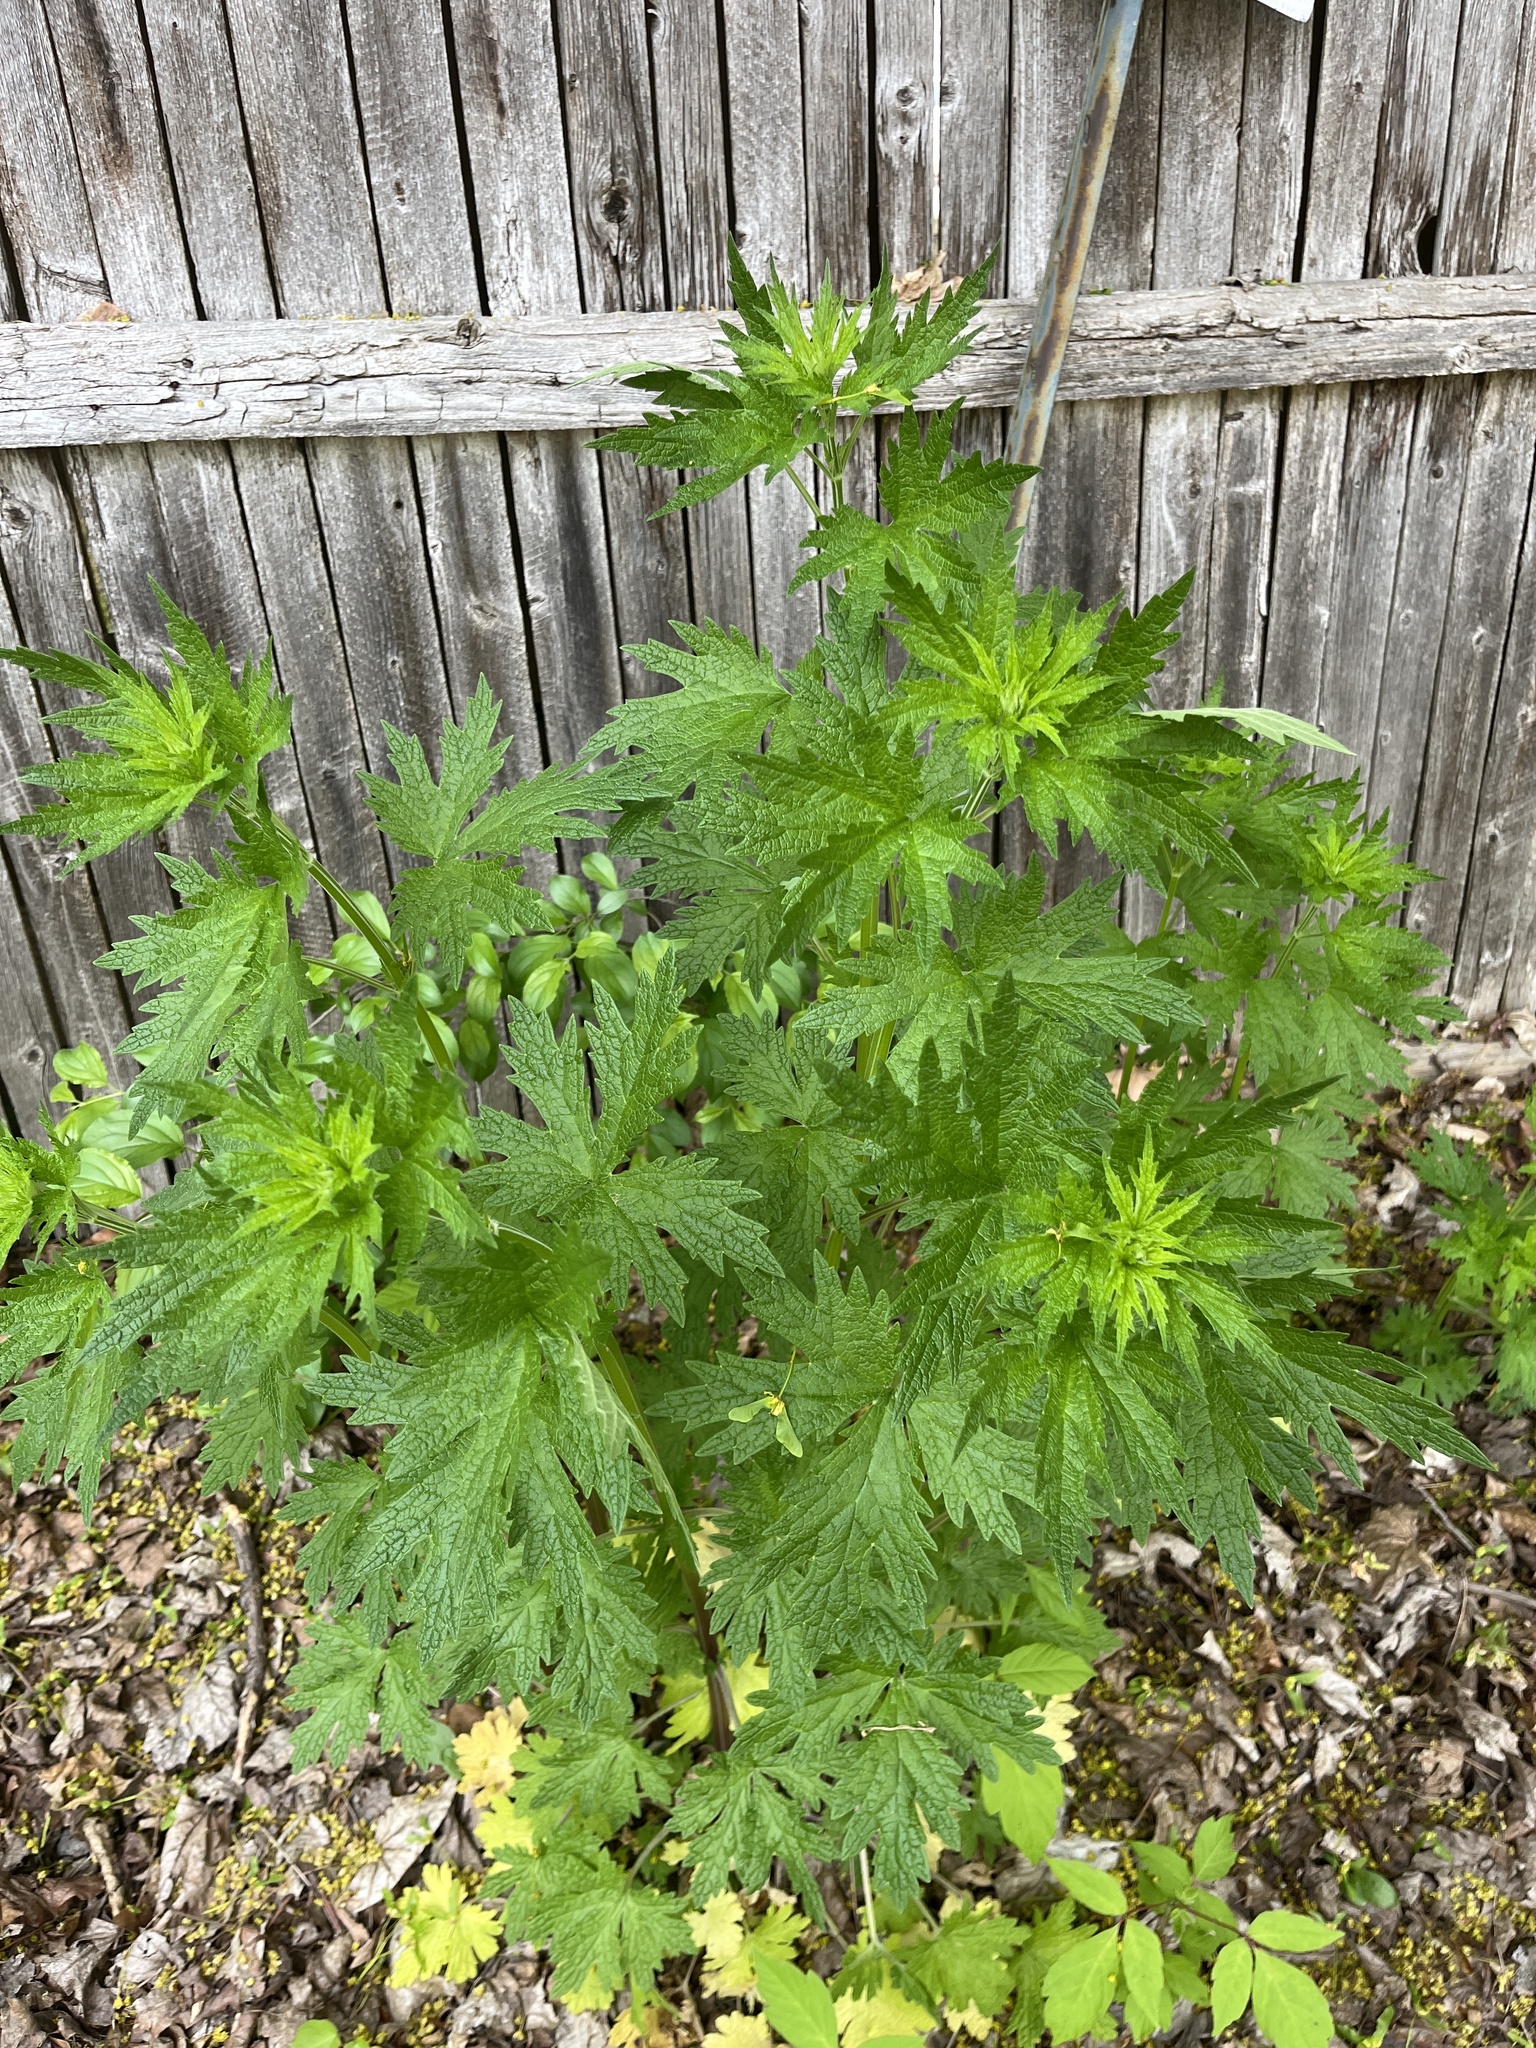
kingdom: Plantae
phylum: Tracheophyta
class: Magnoliopsida
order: Lamiales
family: Lamiaceae
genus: Leonurus
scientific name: Leonurus cardiaca
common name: Motherwort
